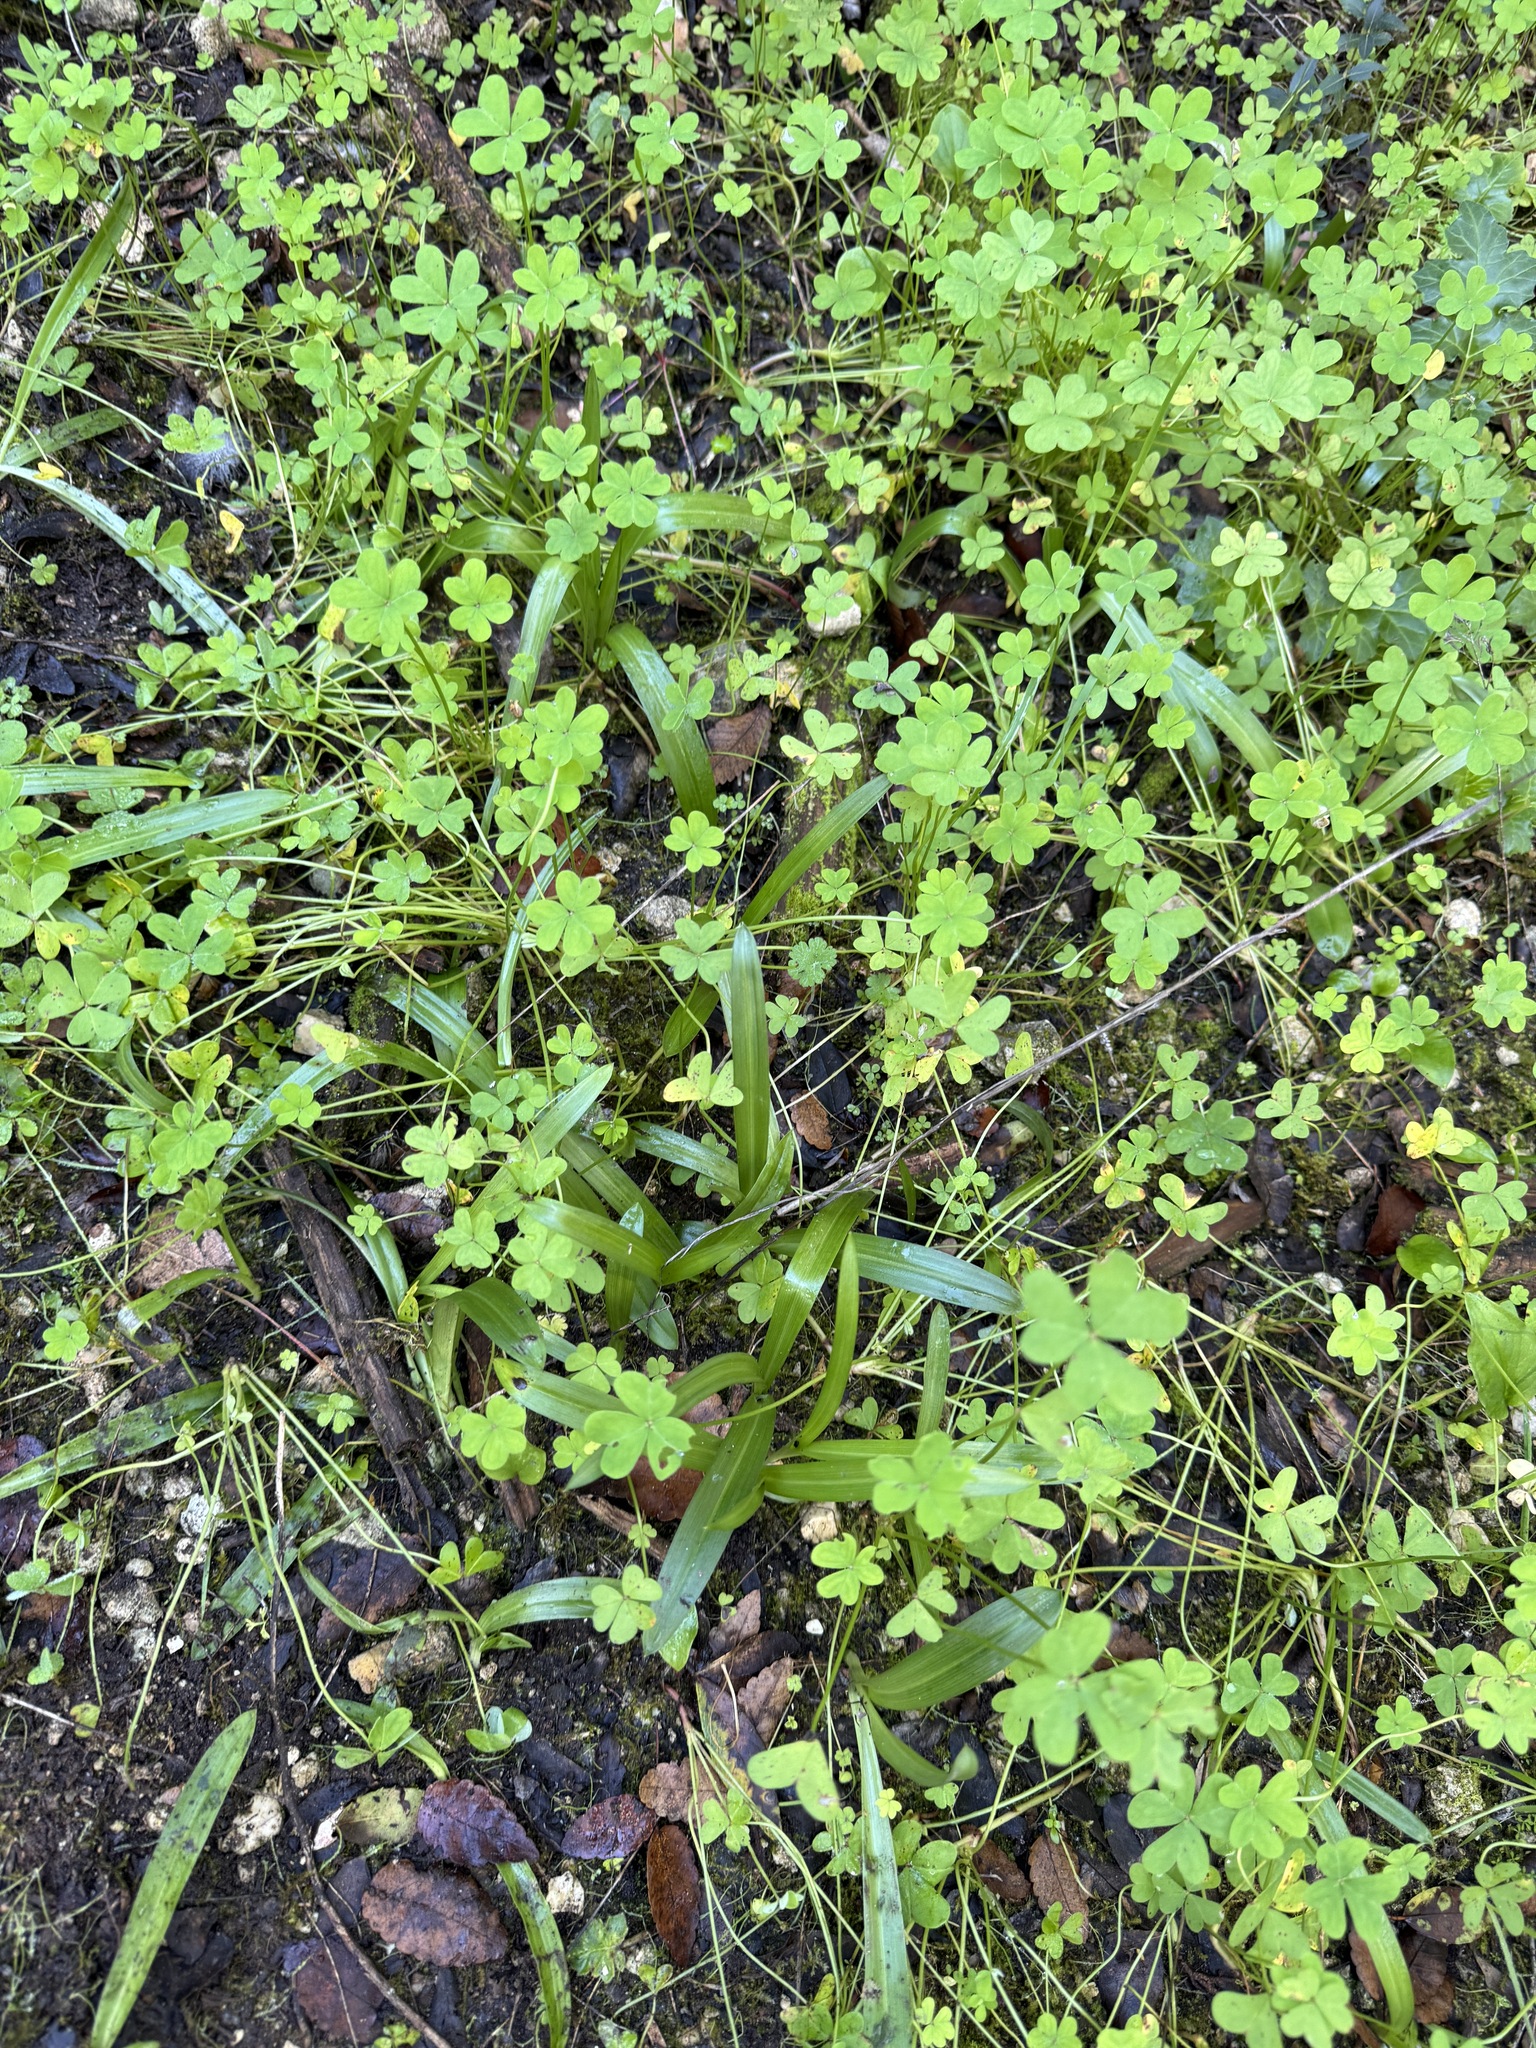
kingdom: Plantae
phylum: Tracheophyta
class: Liliopsida
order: Asparagales
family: Orchidaceae
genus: Anacamptis
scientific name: Anacamptis pyramidalis
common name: Pyramidal orchid
